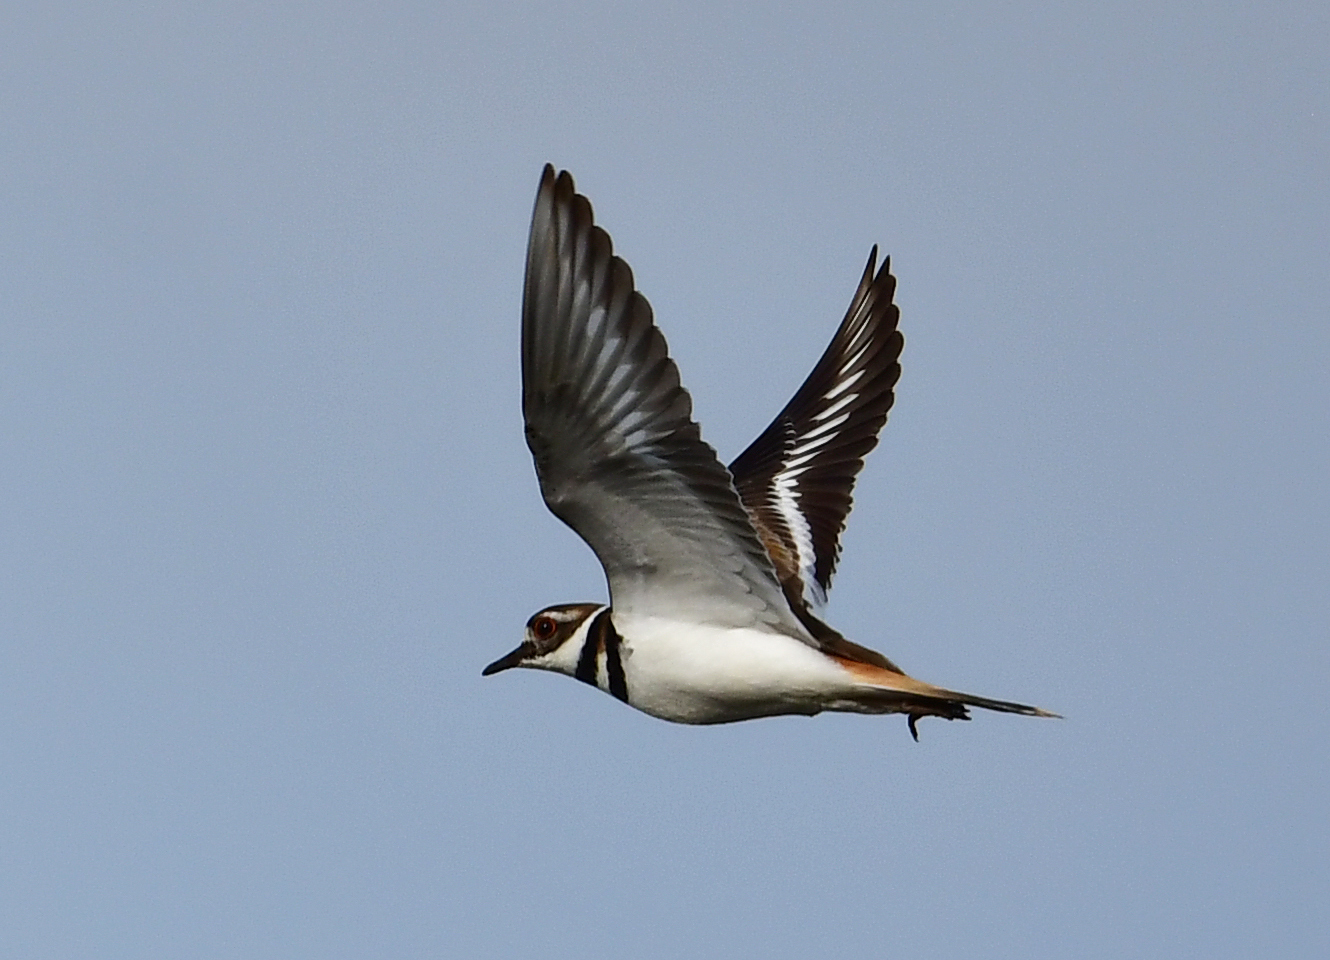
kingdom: Animalia
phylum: Chordata
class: Aves
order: Charadriiformes
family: Charadriidae
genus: Charadrius
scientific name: Charadrius vociferus
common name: Killdeer
